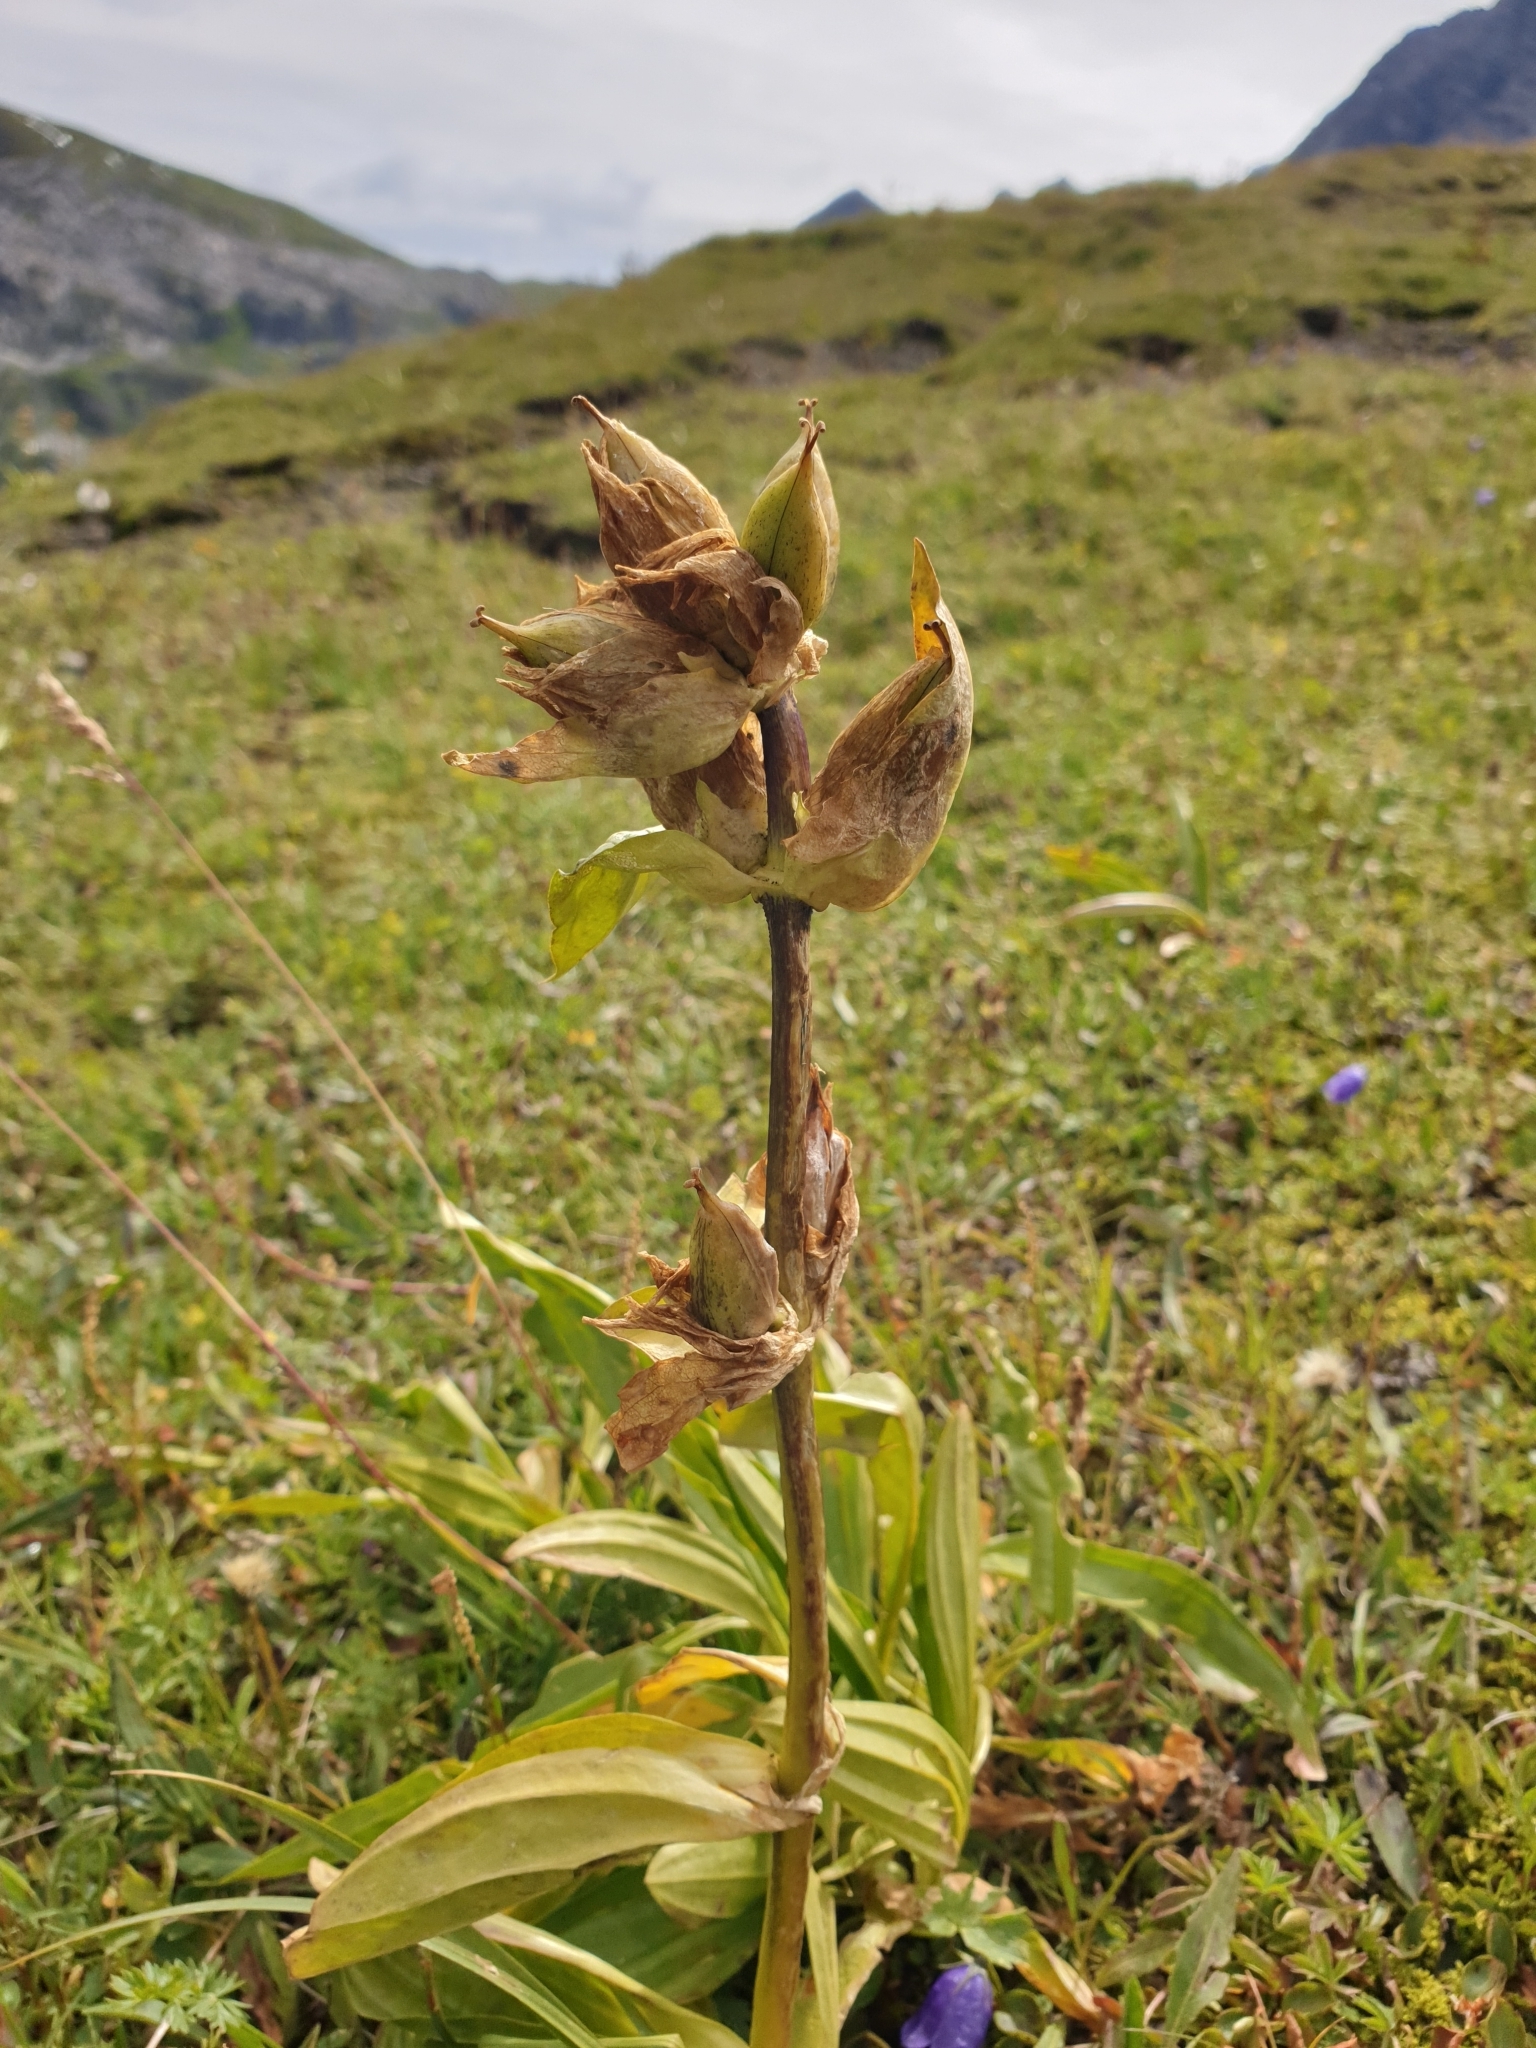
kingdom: Plantae
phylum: Tracheophyta
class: Magnoliopsida
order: Gentianales
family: Gentianaceae
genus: Gentiana
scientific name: Gentiana punctata
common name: Spotted gentian
